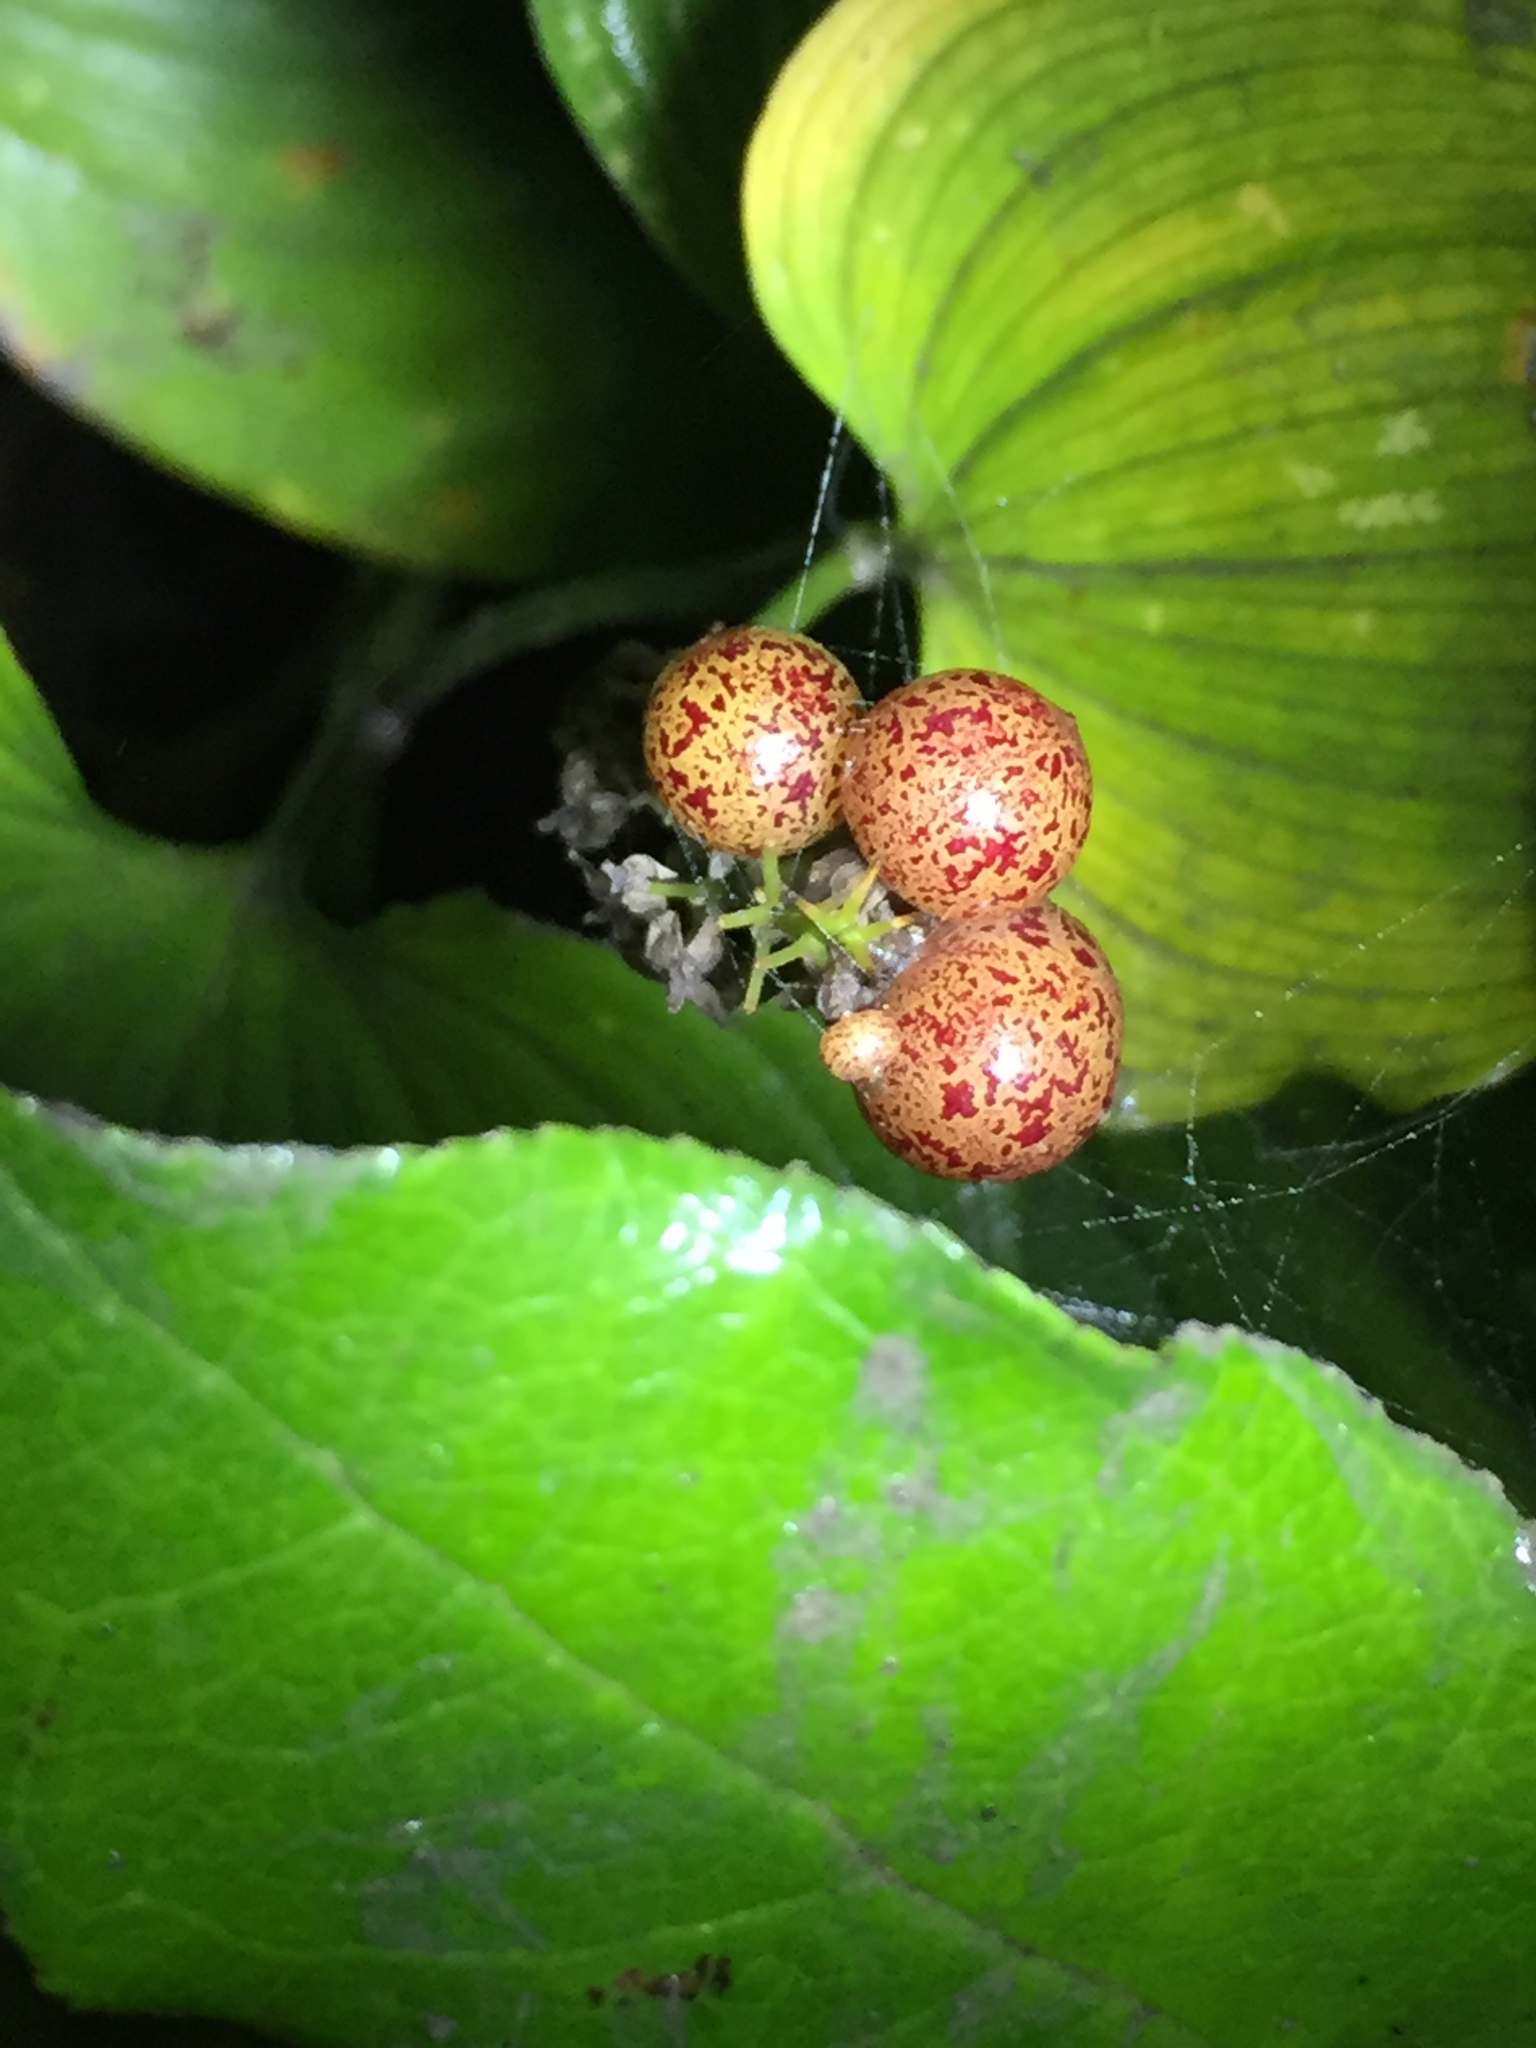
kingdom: Plantae
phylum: Tracheophyta
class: Liliopsida
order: Asparagales
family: Asparagaceae
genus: Maianthemum
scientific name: Maianthemum dilatatum
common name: False lily-of-the-valley
